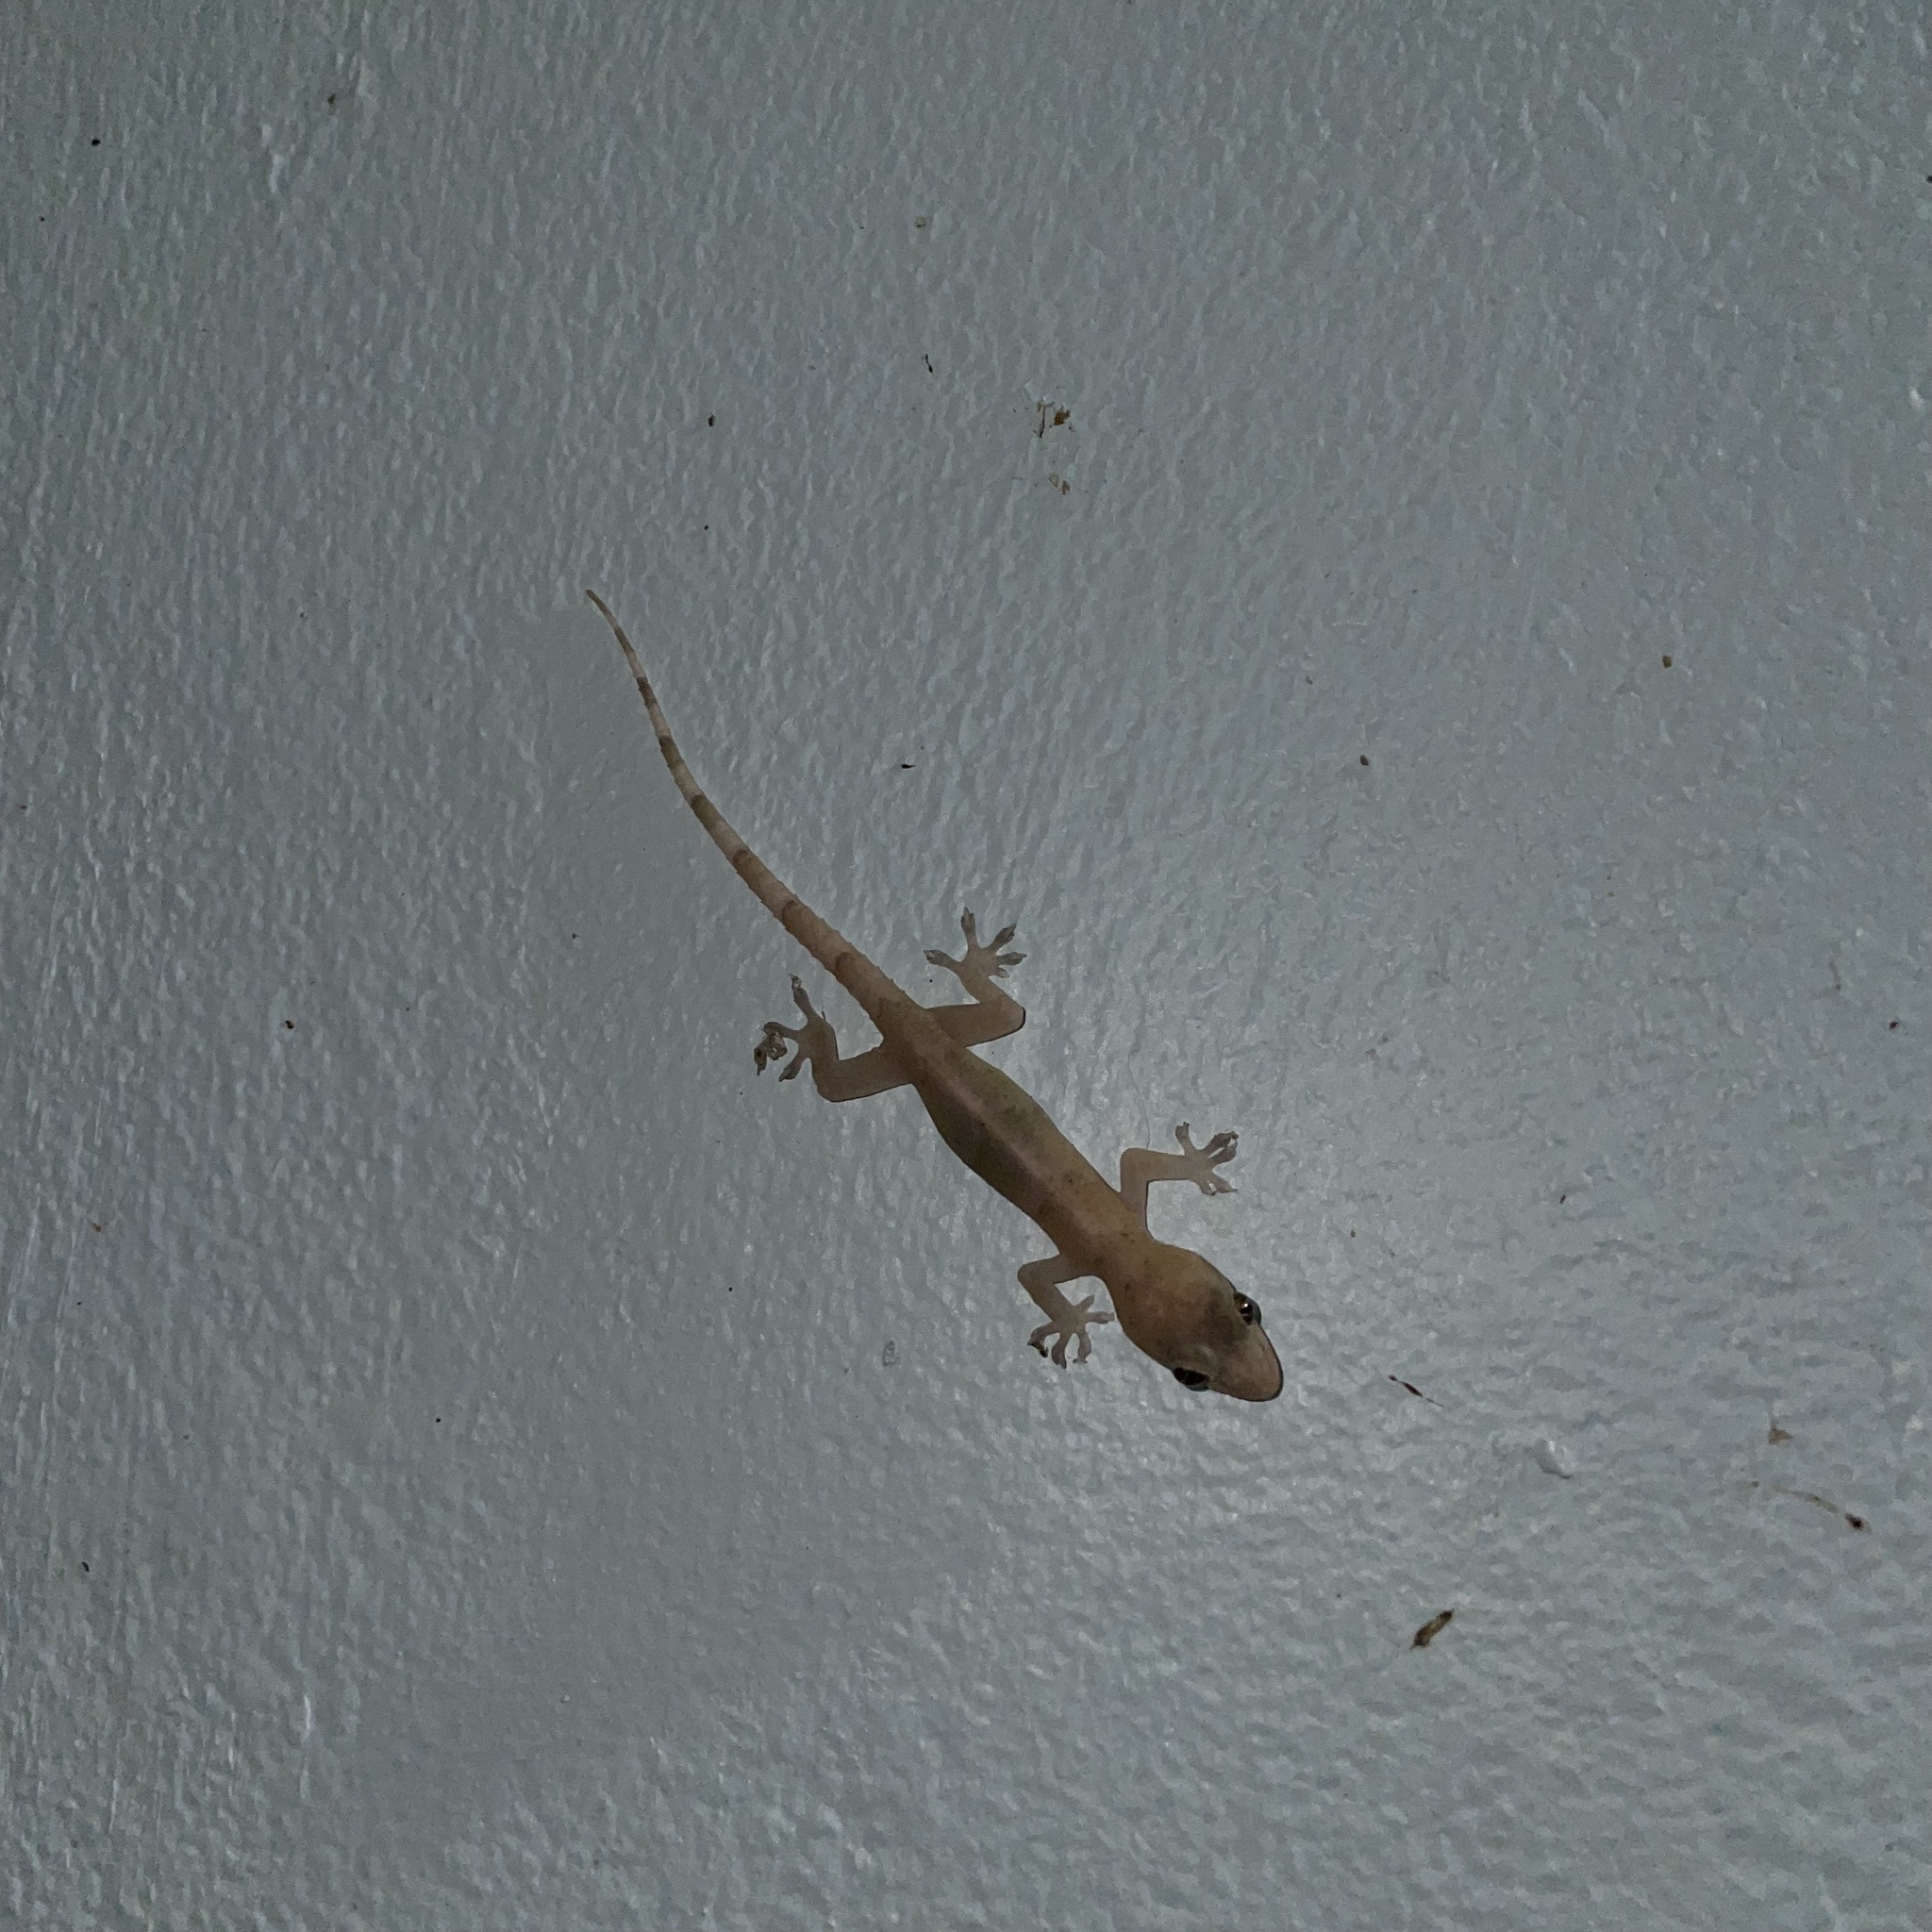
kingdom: Animalia
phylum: Chordata
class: Squamata
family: Gekkonidae
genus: Hemidactylus
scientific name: Hemidactylus mabouia
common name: House gecko
